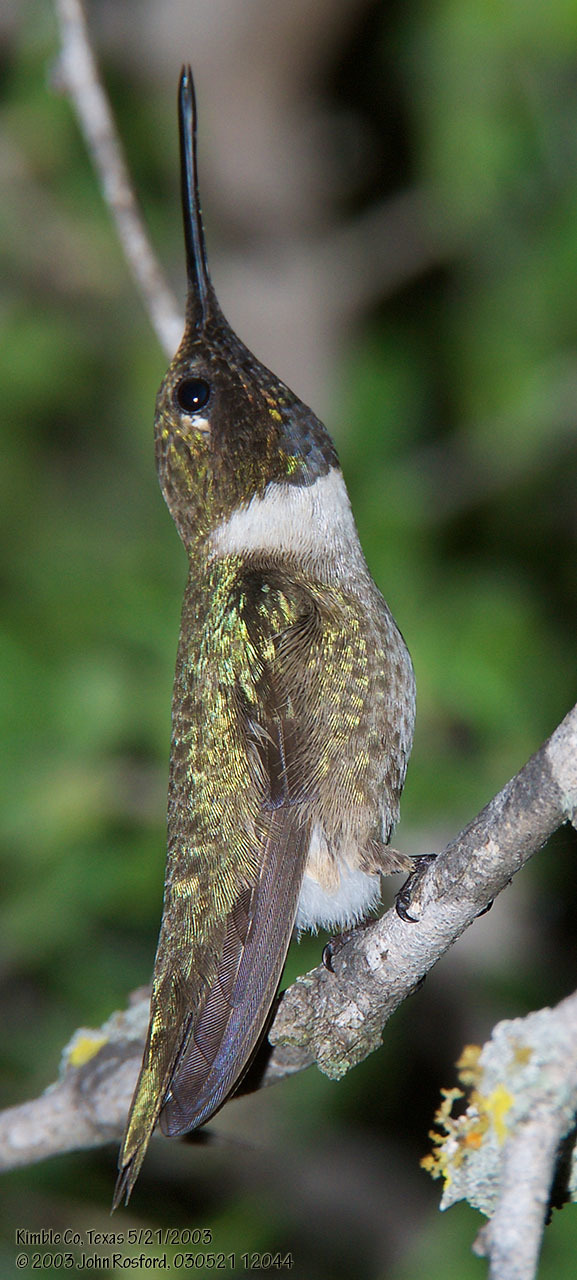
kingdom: Animalia
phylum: Chordata
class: Aves
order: Apodiformes
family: Trochilidae
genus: Archilochus
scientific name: Archilochus alexandri
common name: Black-chinned hummingbird
